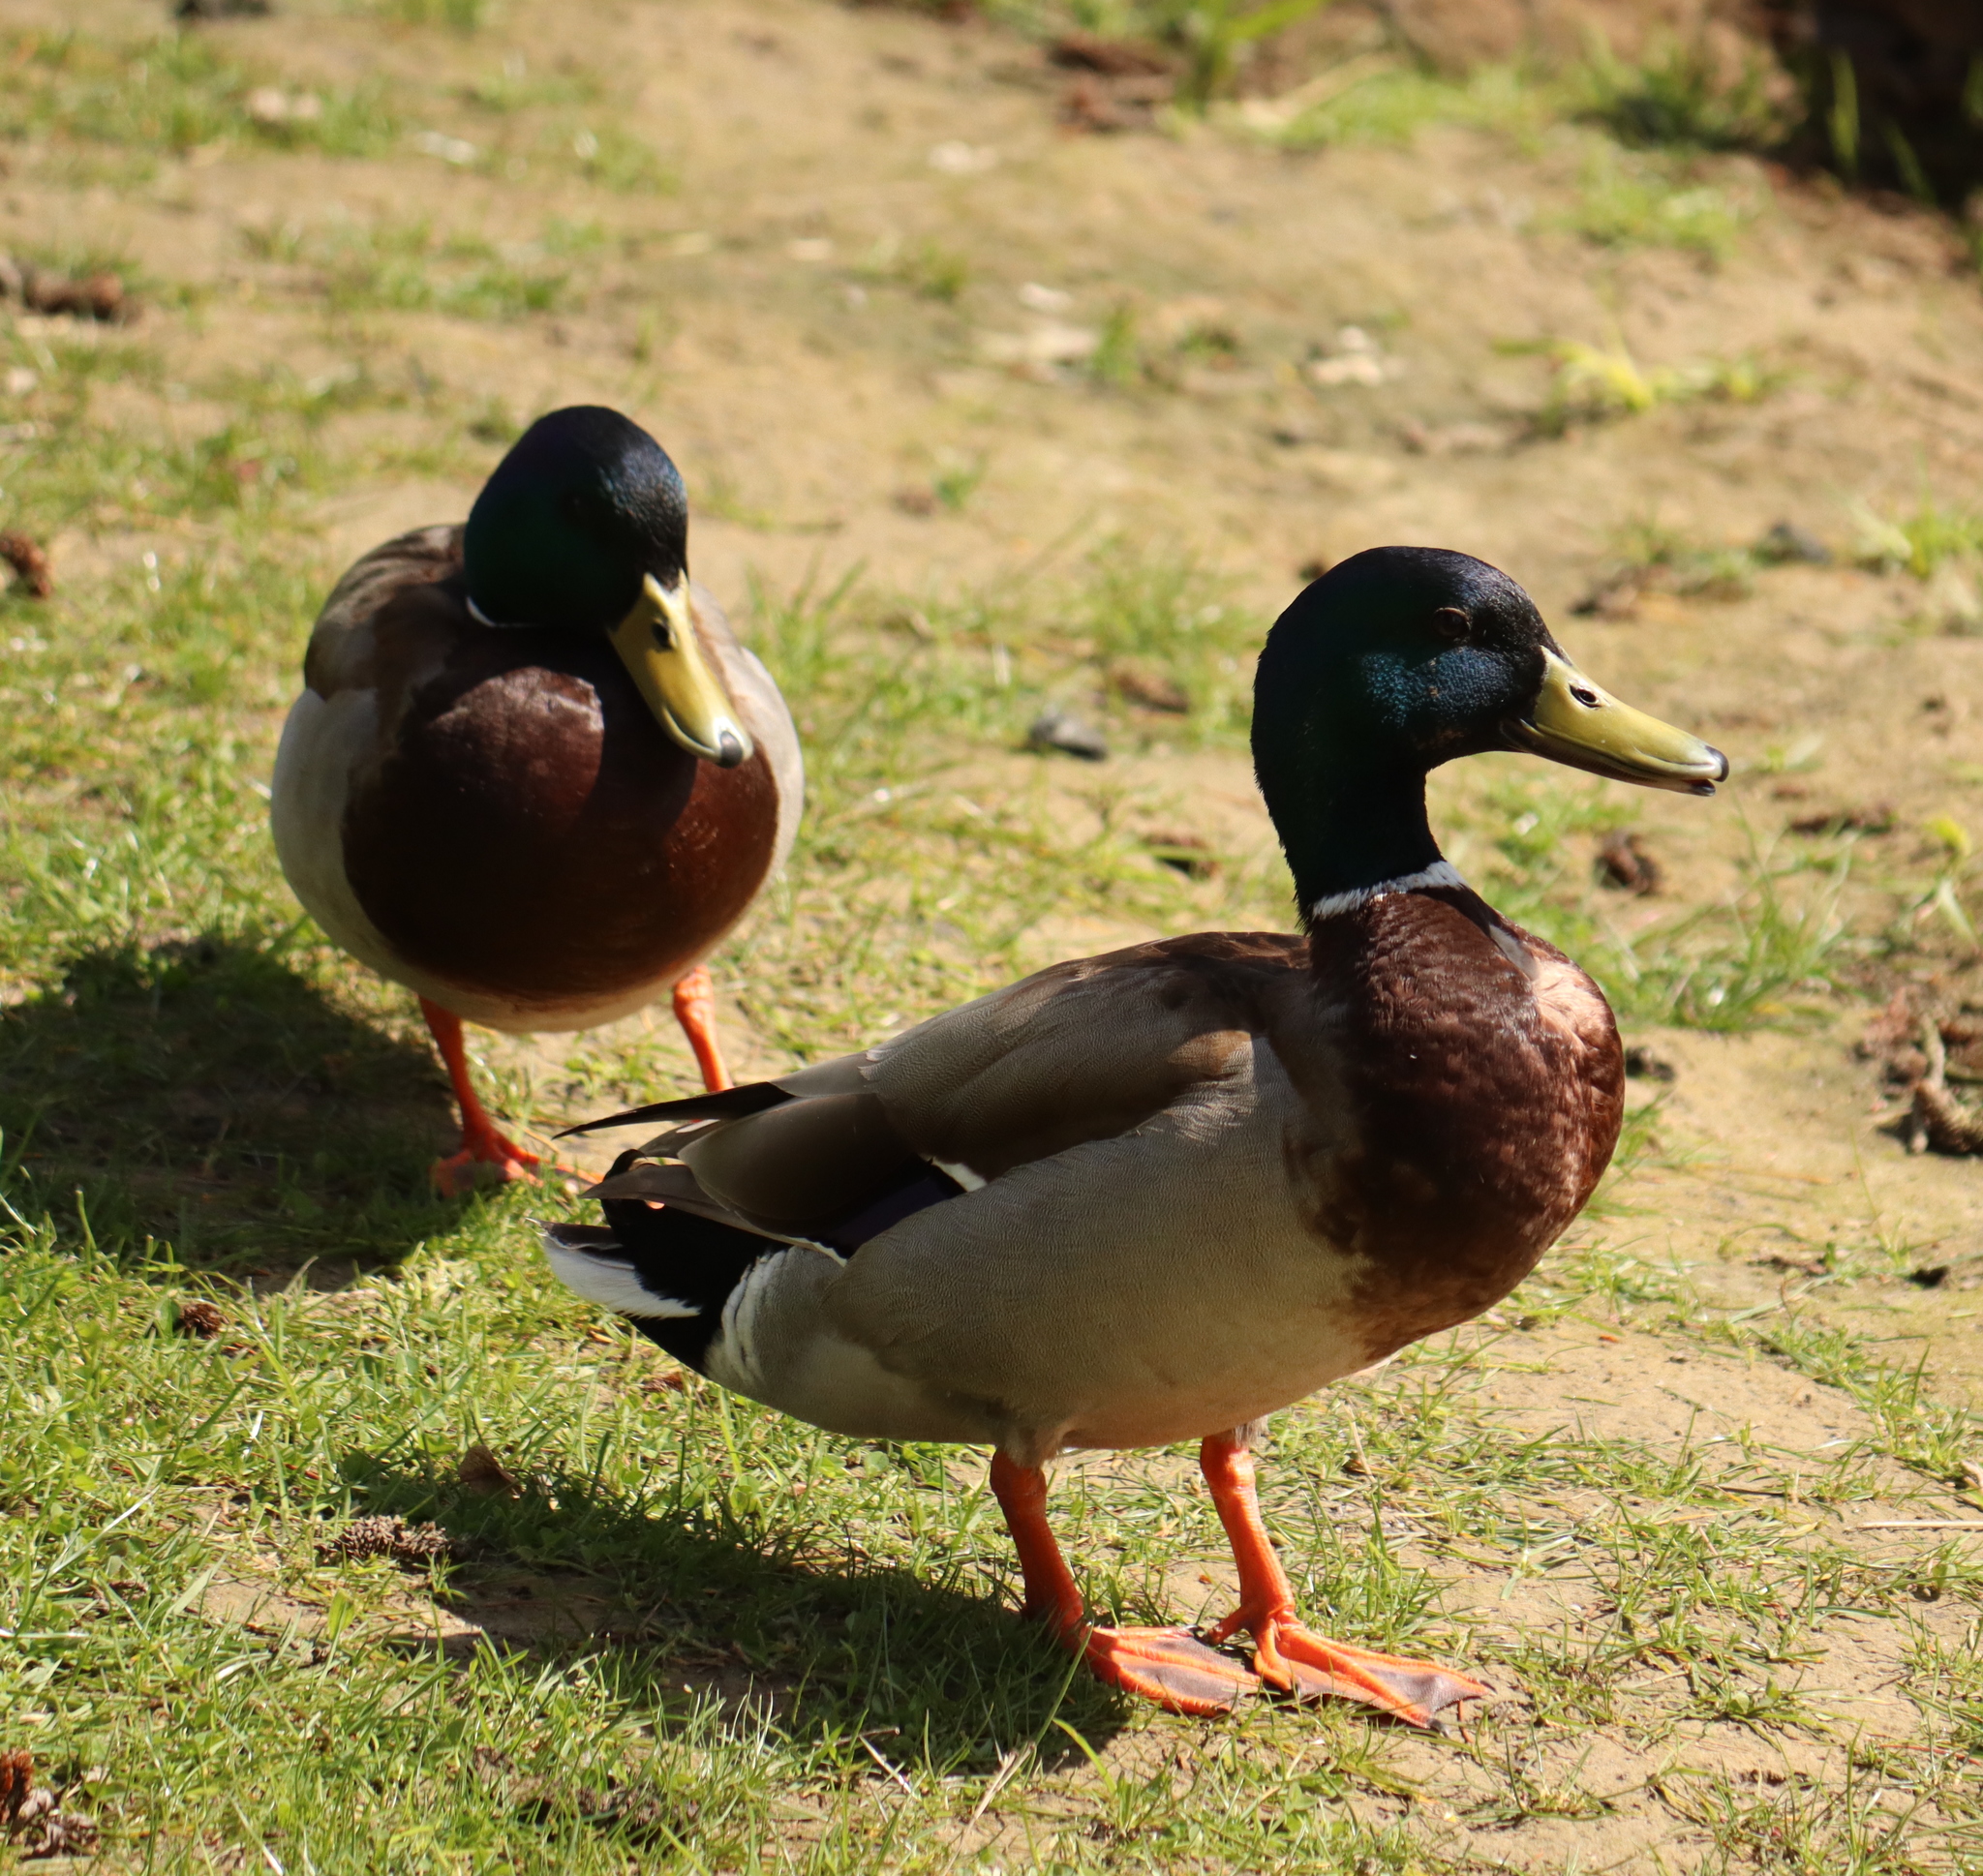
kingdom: Animalia
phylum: Chordata
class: Aves
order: Anseriformes
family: Anatidae
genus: Anas
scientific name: Anas platyrhynchos
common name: Mallard
